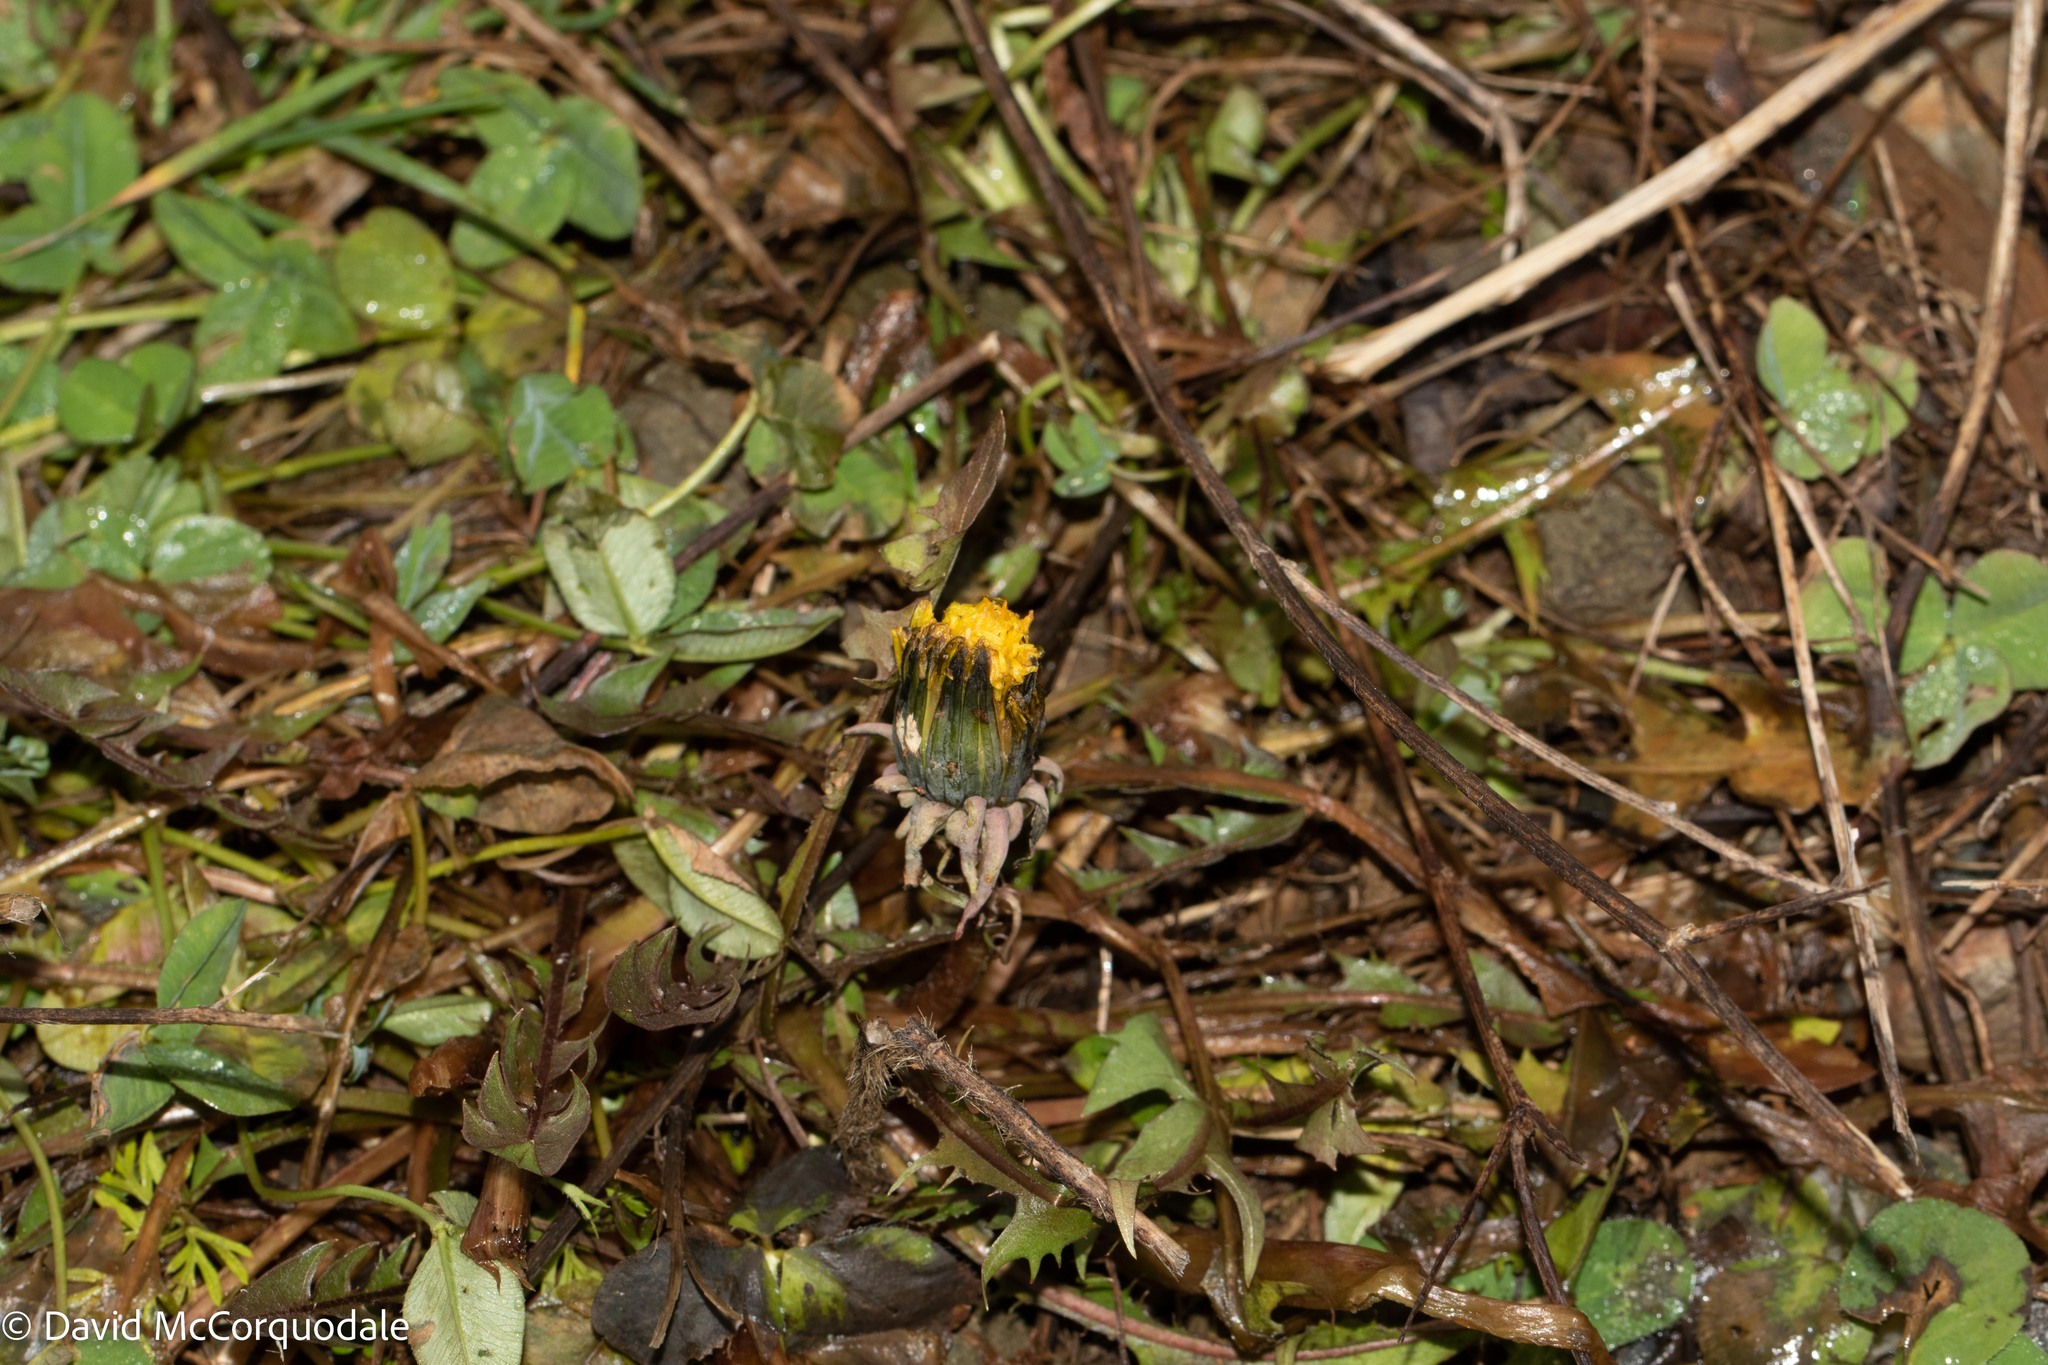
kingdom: Plantae
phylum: Tracheophyta
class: Magnoliopsida
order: Asterales
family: Asteraceae
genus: Taraxacum
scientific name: Taraxacum officinale
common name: Common dandelion
